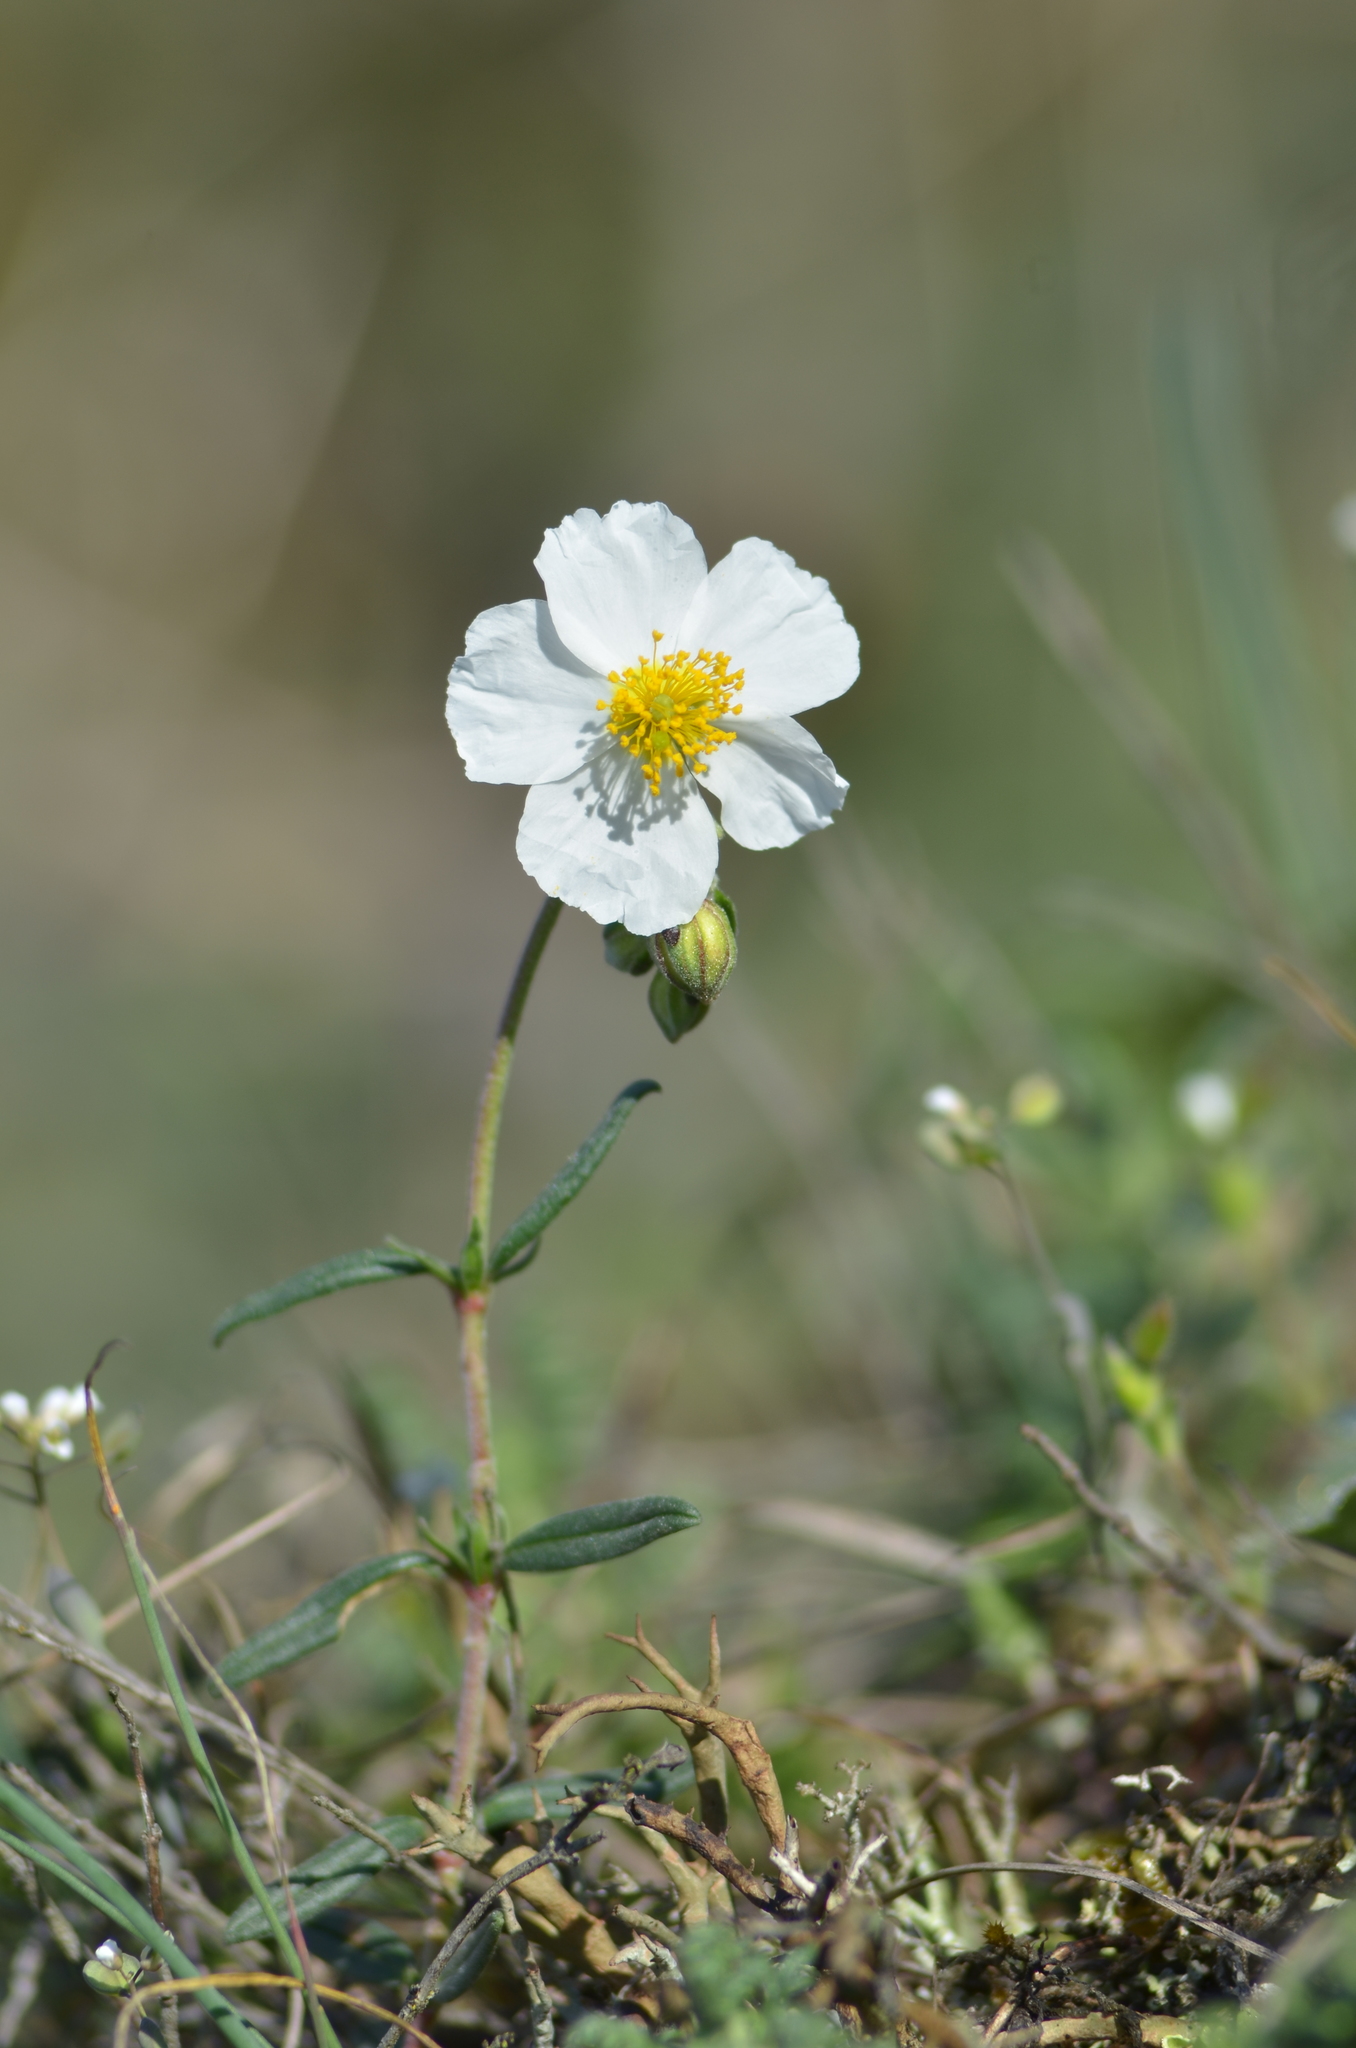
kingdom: Plantae
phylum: Tracheophyta
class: Magnoliopsida
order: Malvales
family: Cistaceae
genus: Helianthemum
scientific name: Helianthemum apenninum
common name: White rock-rose
